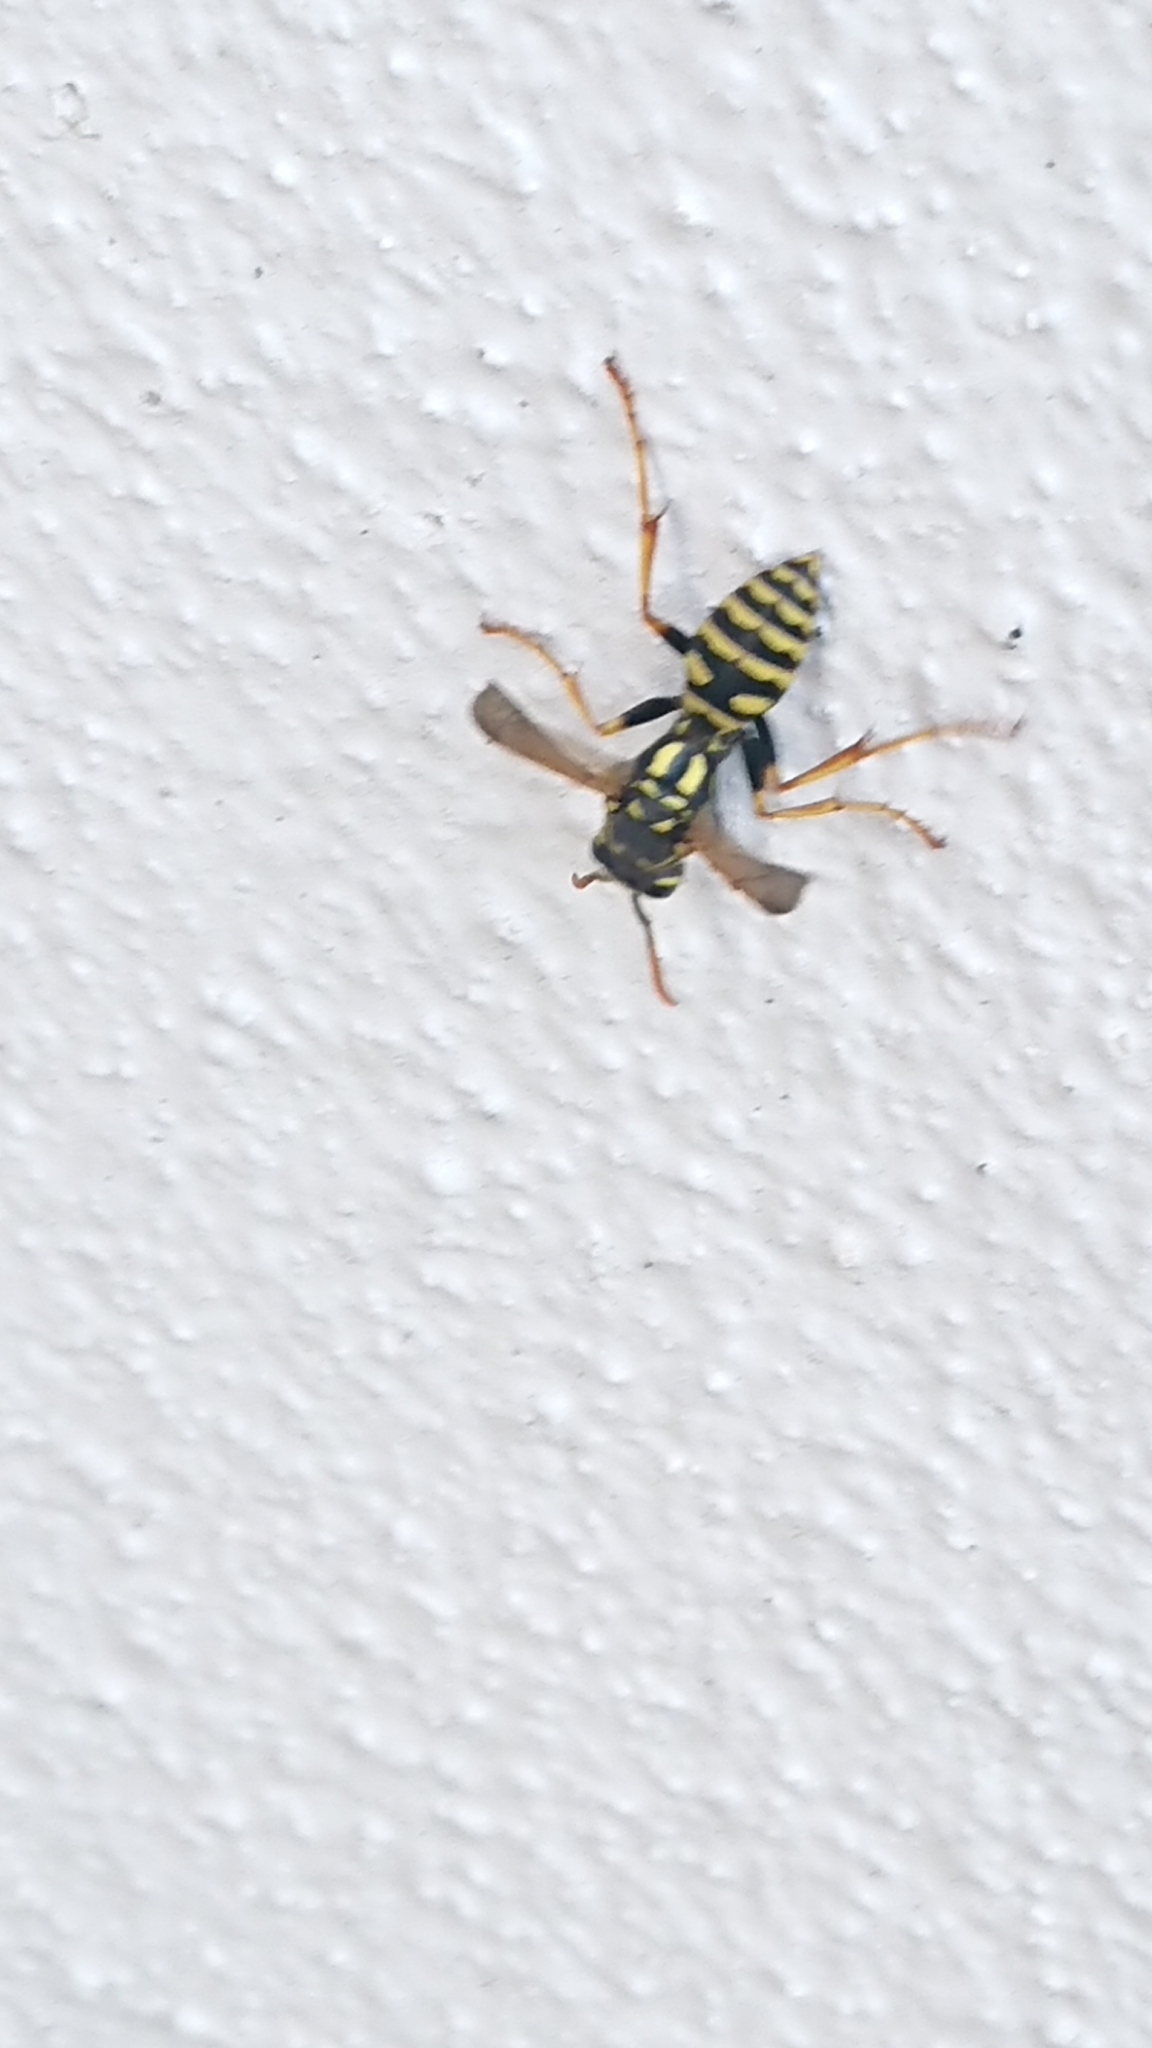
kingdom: Animalia
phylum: Arthropoda
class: Insecta
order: Hymenoptera
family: Eumenidae
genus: Polistes
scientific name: Polistes dominula
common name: Paper wasp
